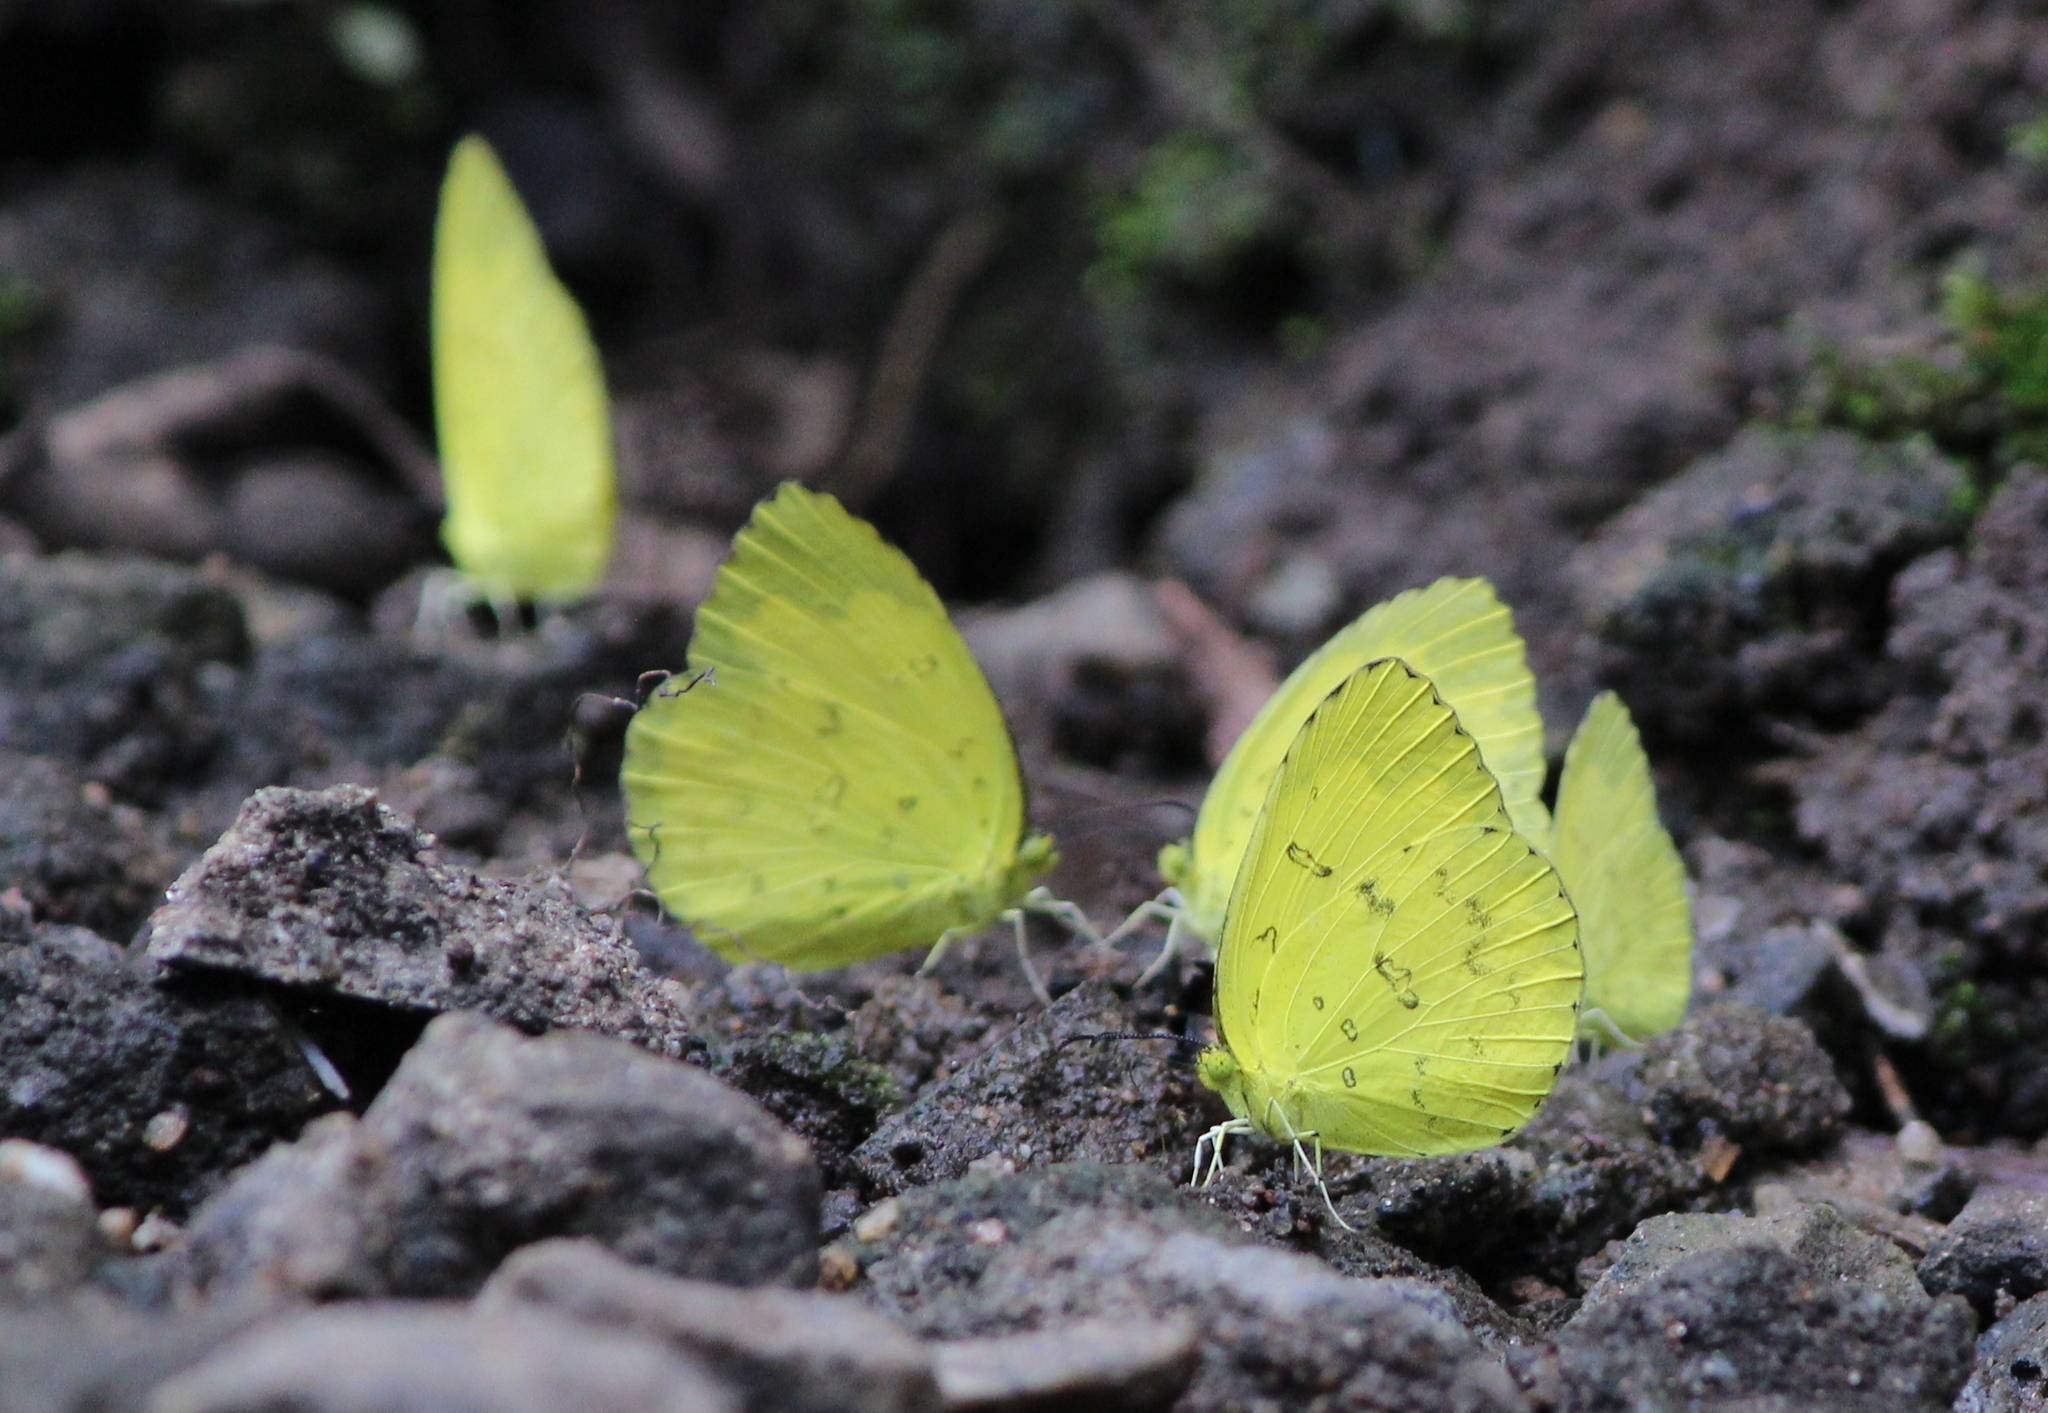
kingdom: Animalia
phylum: Arthropoda
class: Insecta
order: Lepidoptera
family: Pieridae
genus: Eurema
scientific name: Eurema blanda
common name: Three-spot grass yellow
